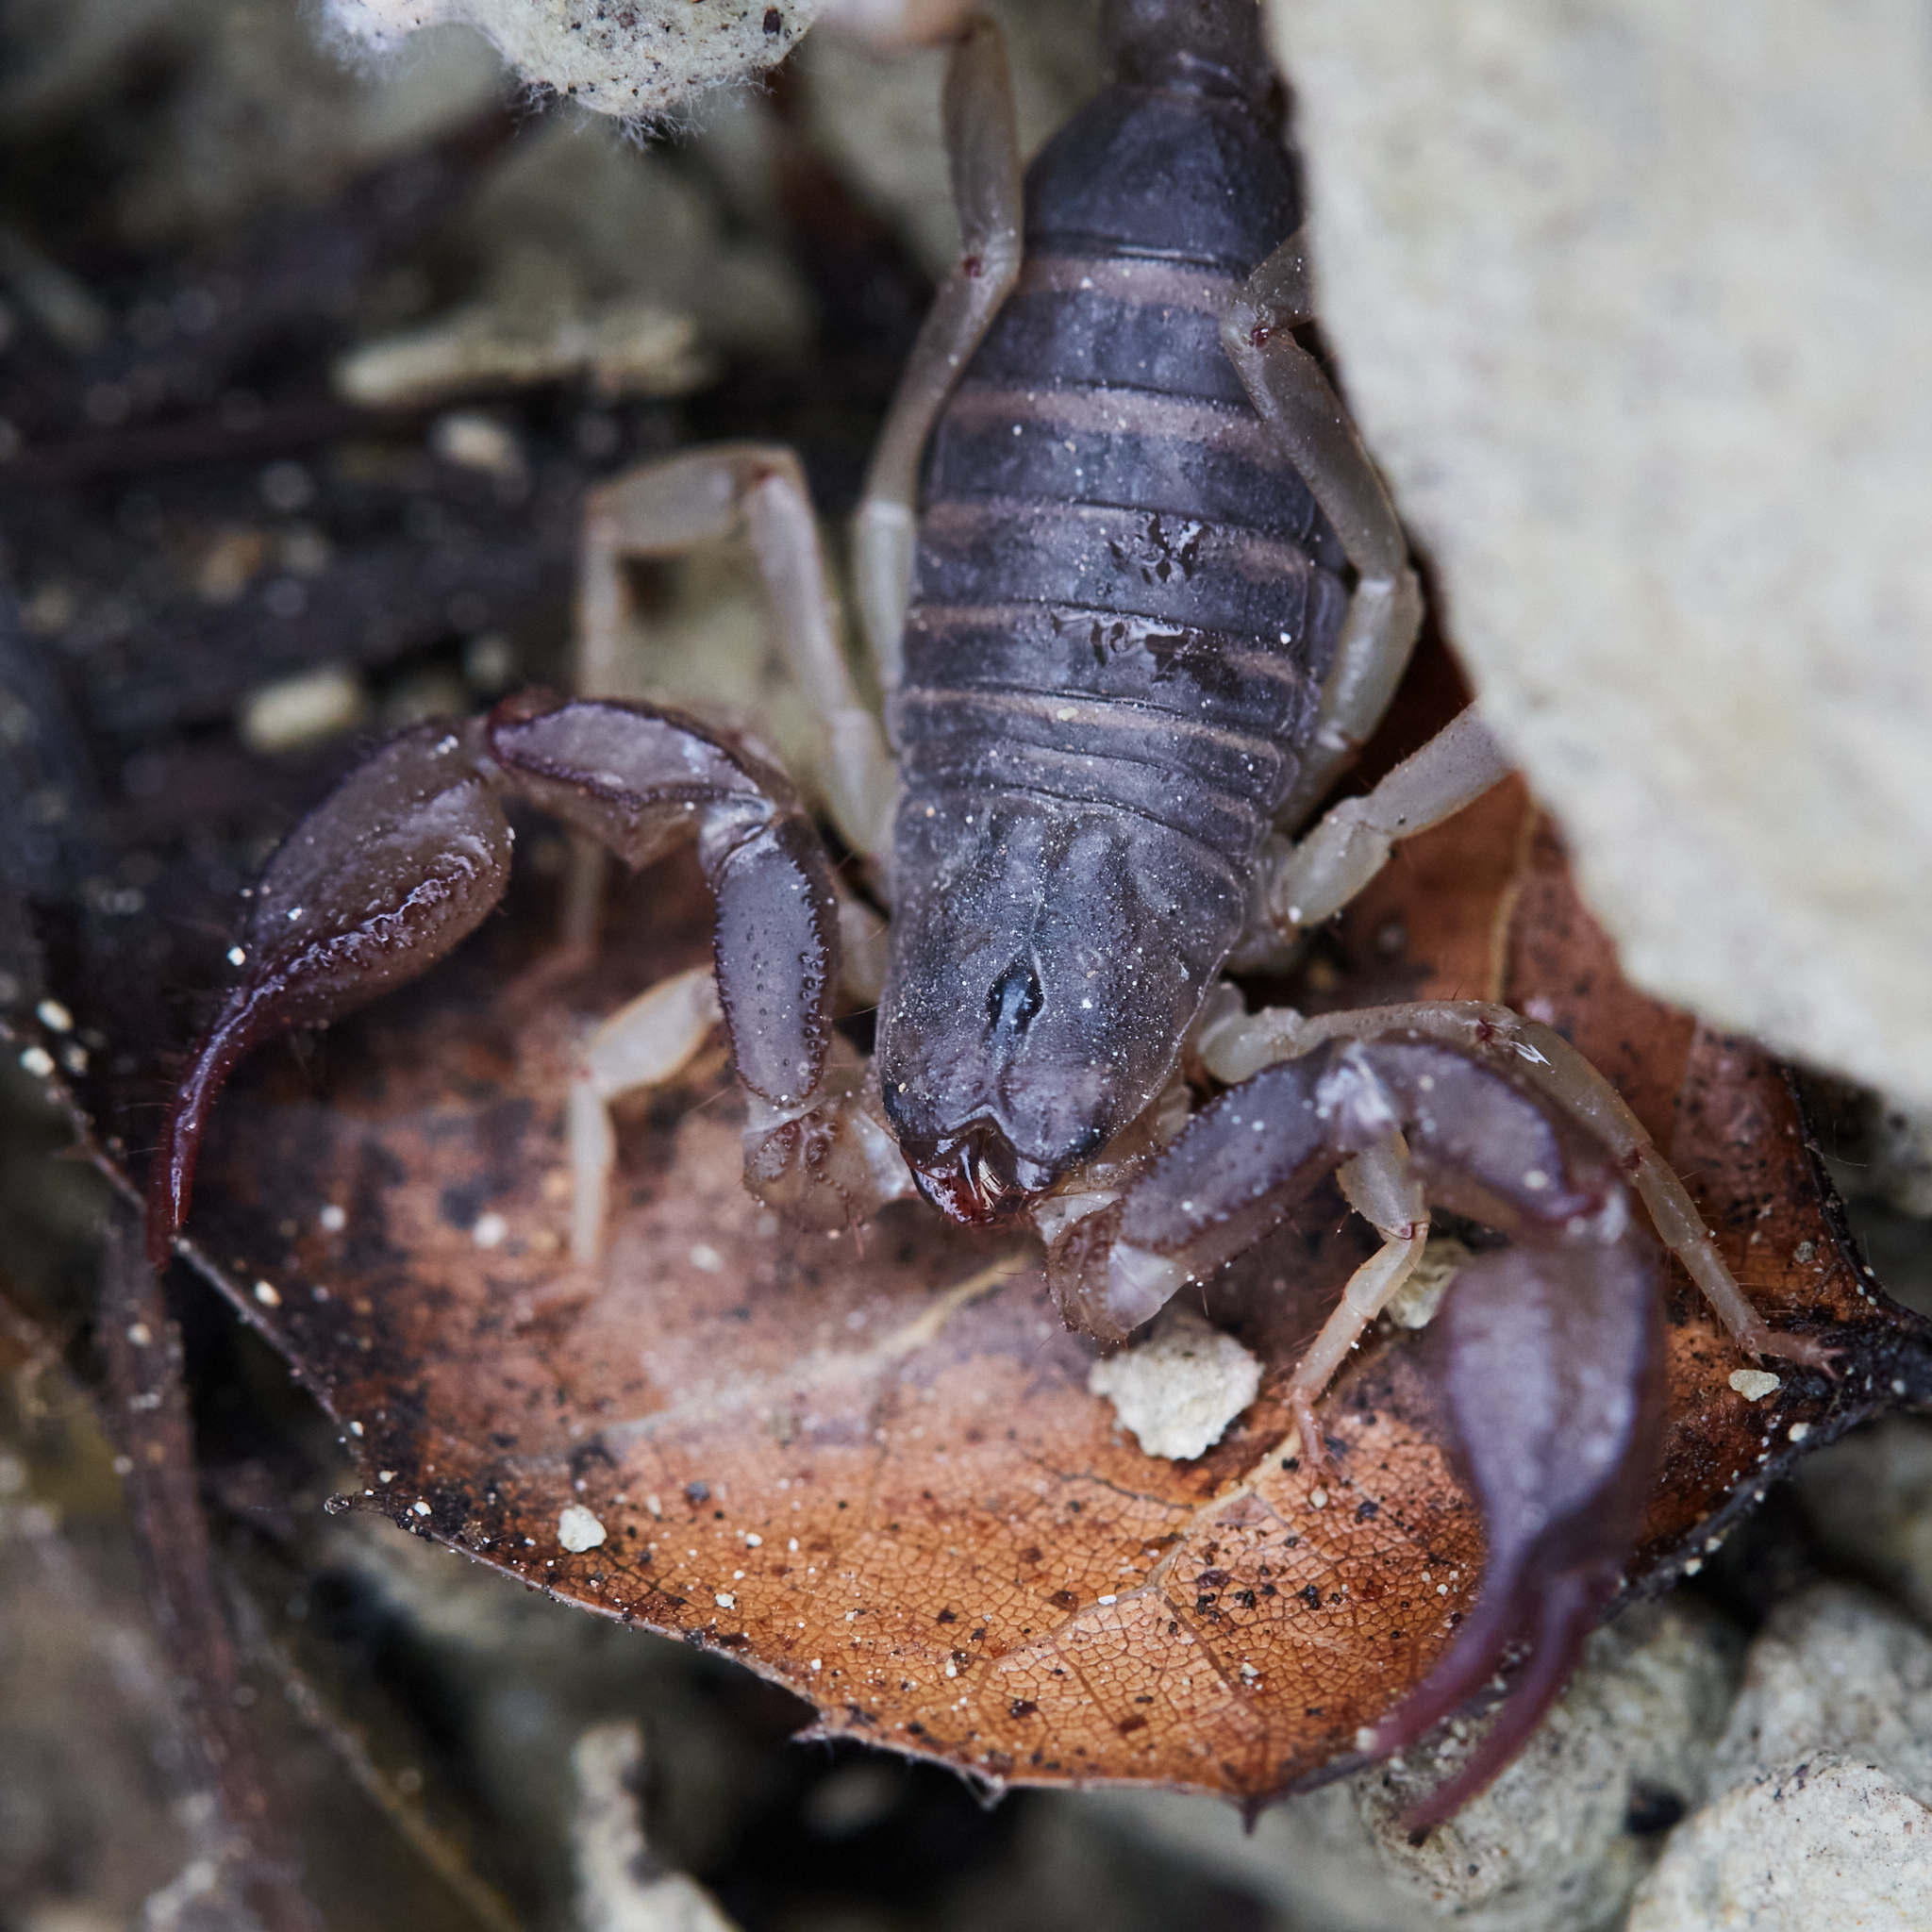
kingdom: Animalia
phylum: Arthropoda
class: Arachnida
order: Scorpiones
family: Chactidae
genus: Uroctonus
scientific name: Uroctonus mordax
